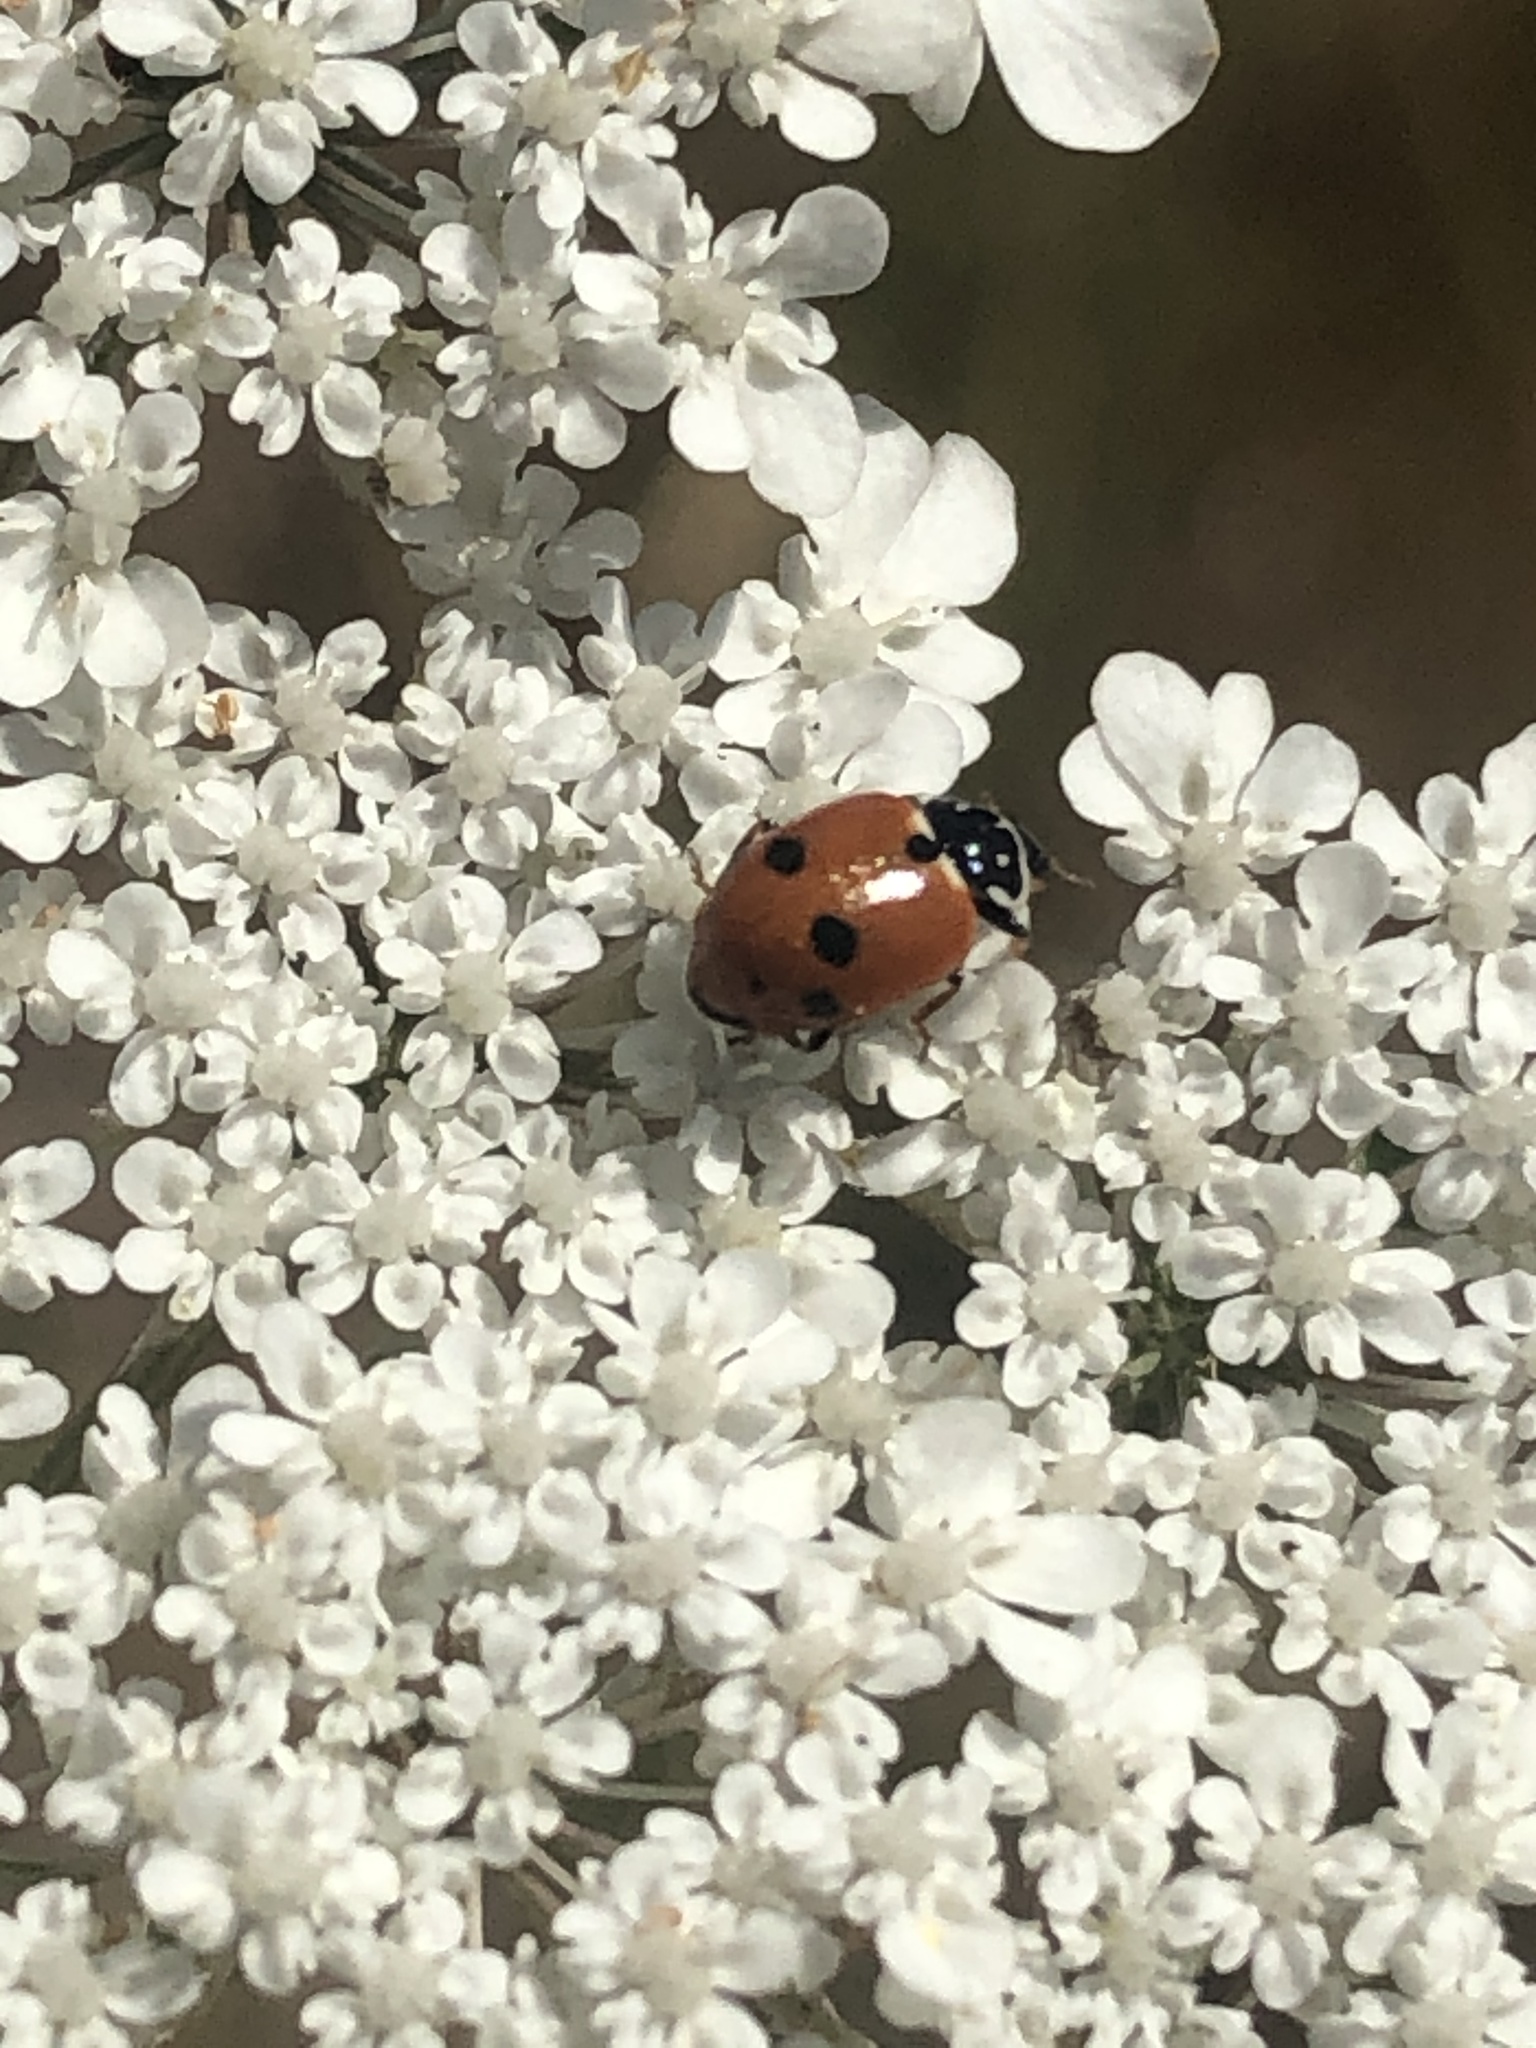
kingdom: Animalia
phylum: Arthropoda
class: Insecta
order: Coleoptera
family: Coccinellidae
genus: Hippodamia
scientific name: Hippodamia variegata
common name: Ladybird beetle
